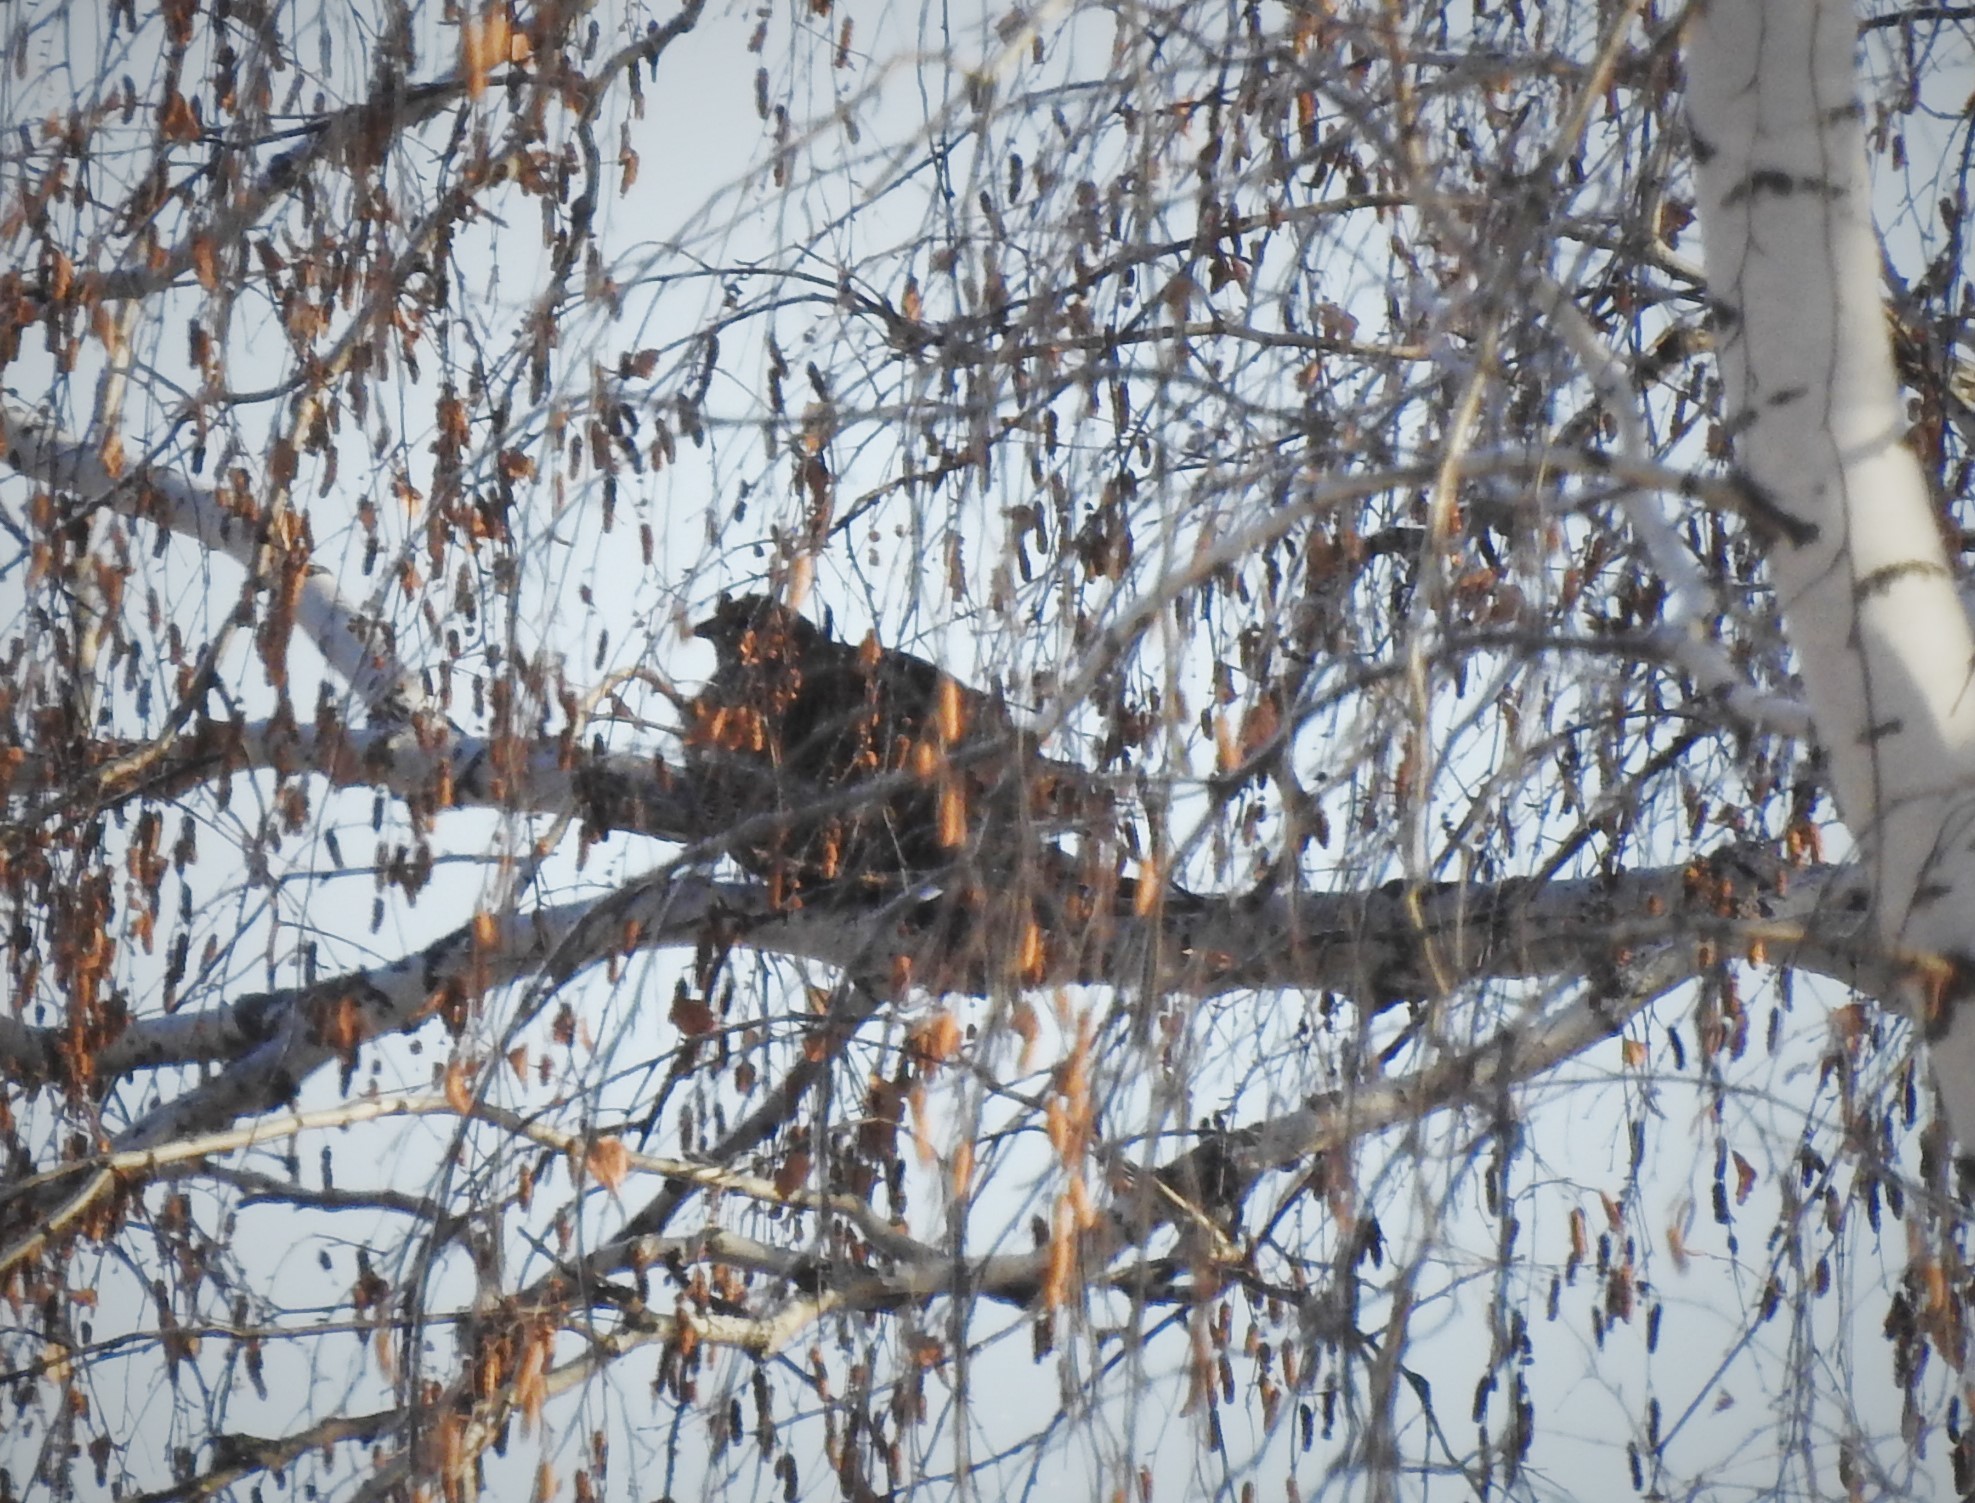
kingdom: Animalia
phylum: Chordata
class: Aves
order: Galliformes
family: Phasianidae
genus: Tetrastes
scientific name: Tetrastes bonasia
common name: Hazel grouse
